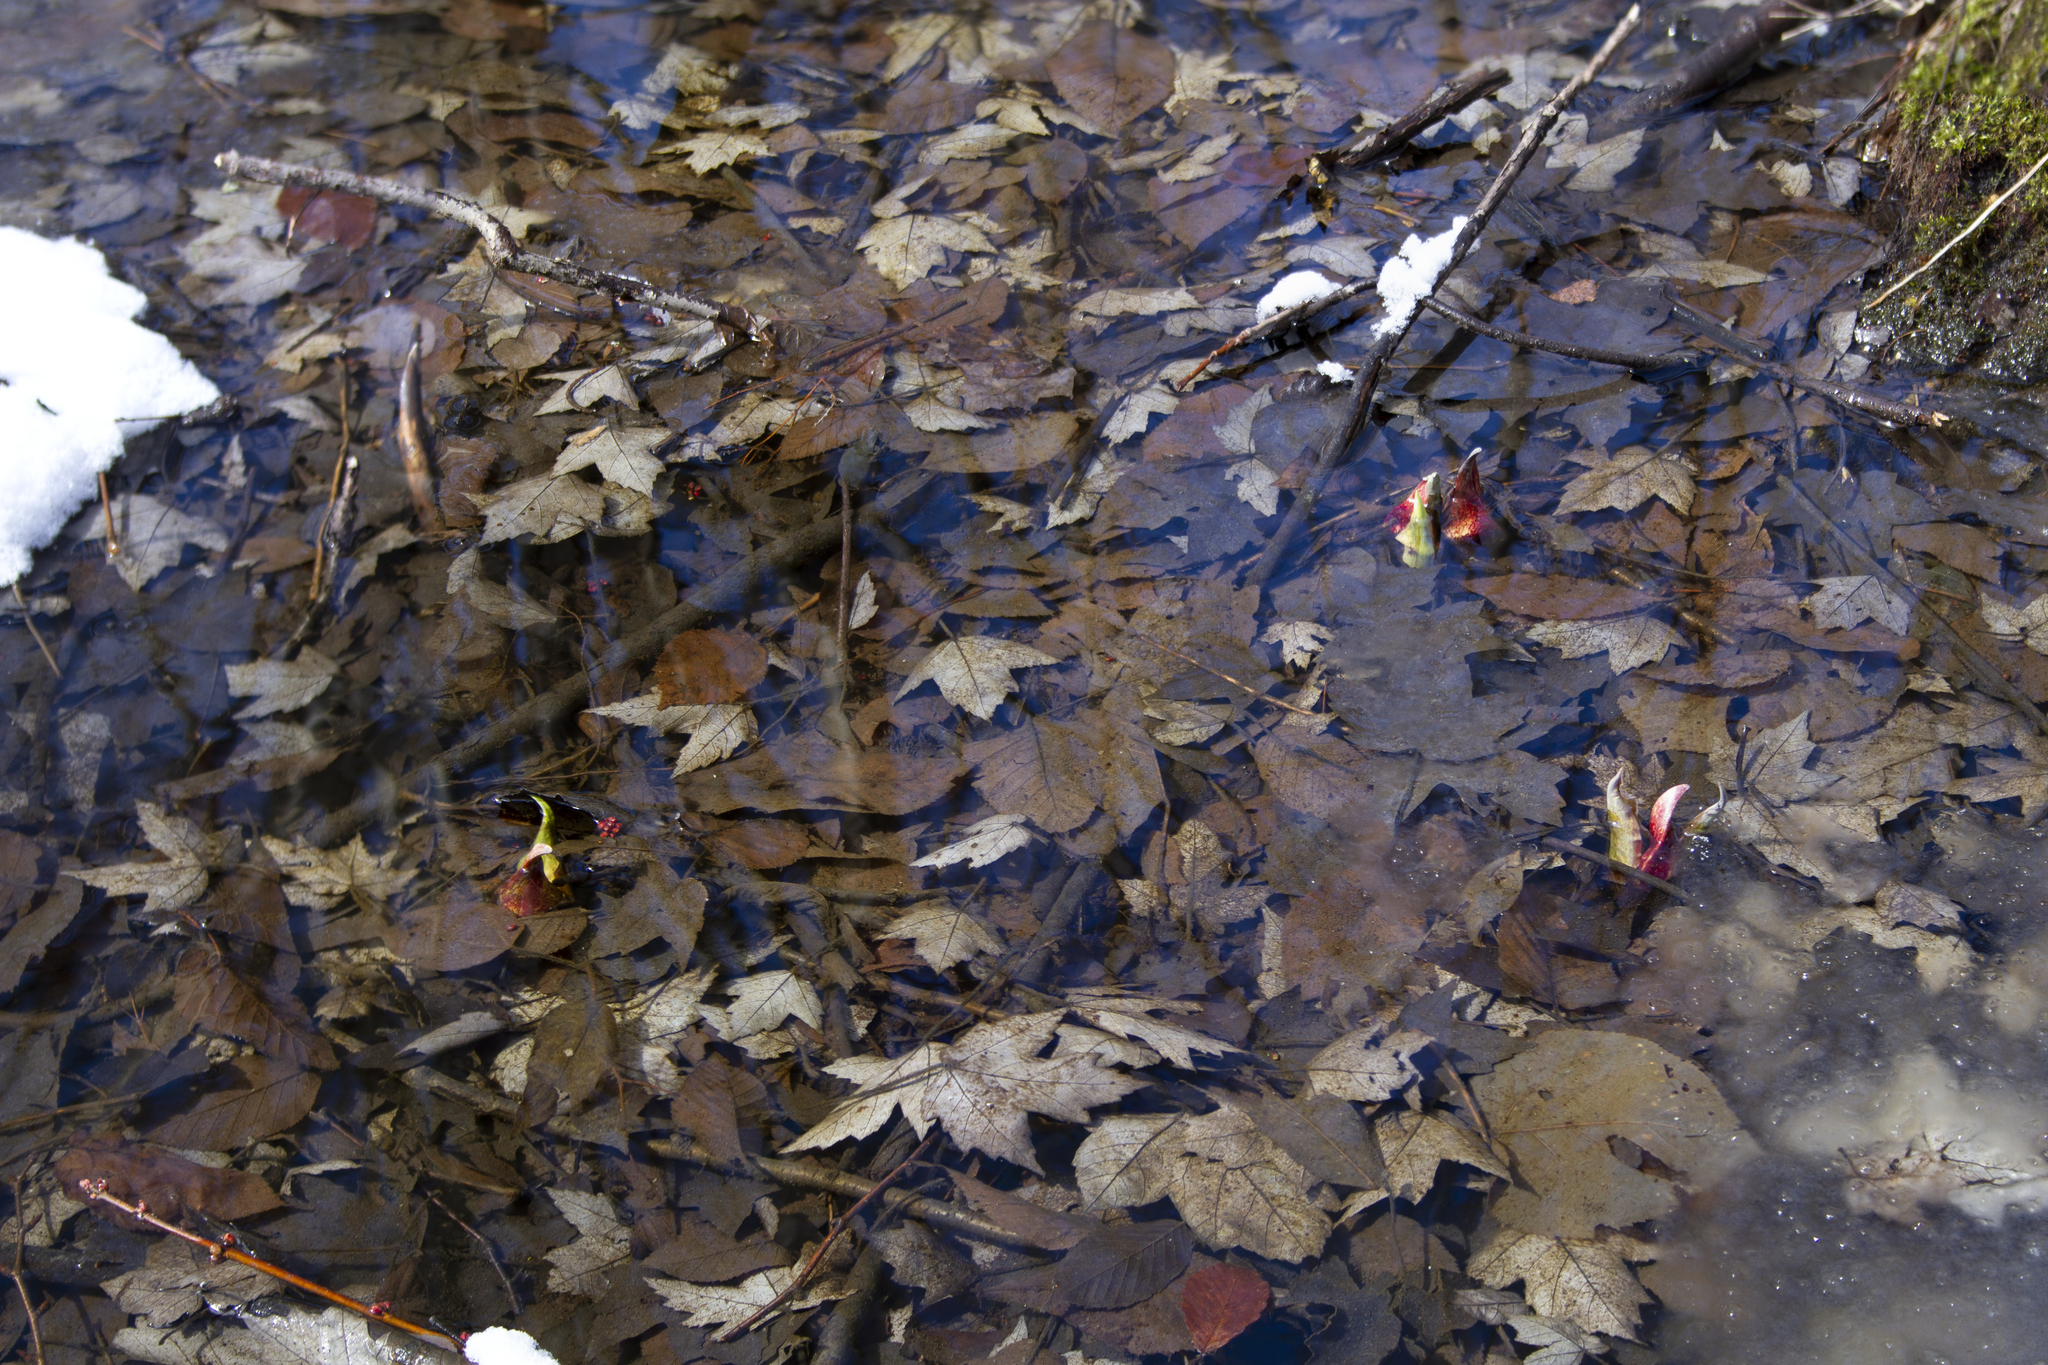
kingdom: Plantae
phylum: Tracheophyta
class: Liliopsida
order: Alismatales
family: Araceae
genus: Symplocarpus
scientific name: Symplocarpus foetidus
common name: Eastern skunk cabbage
